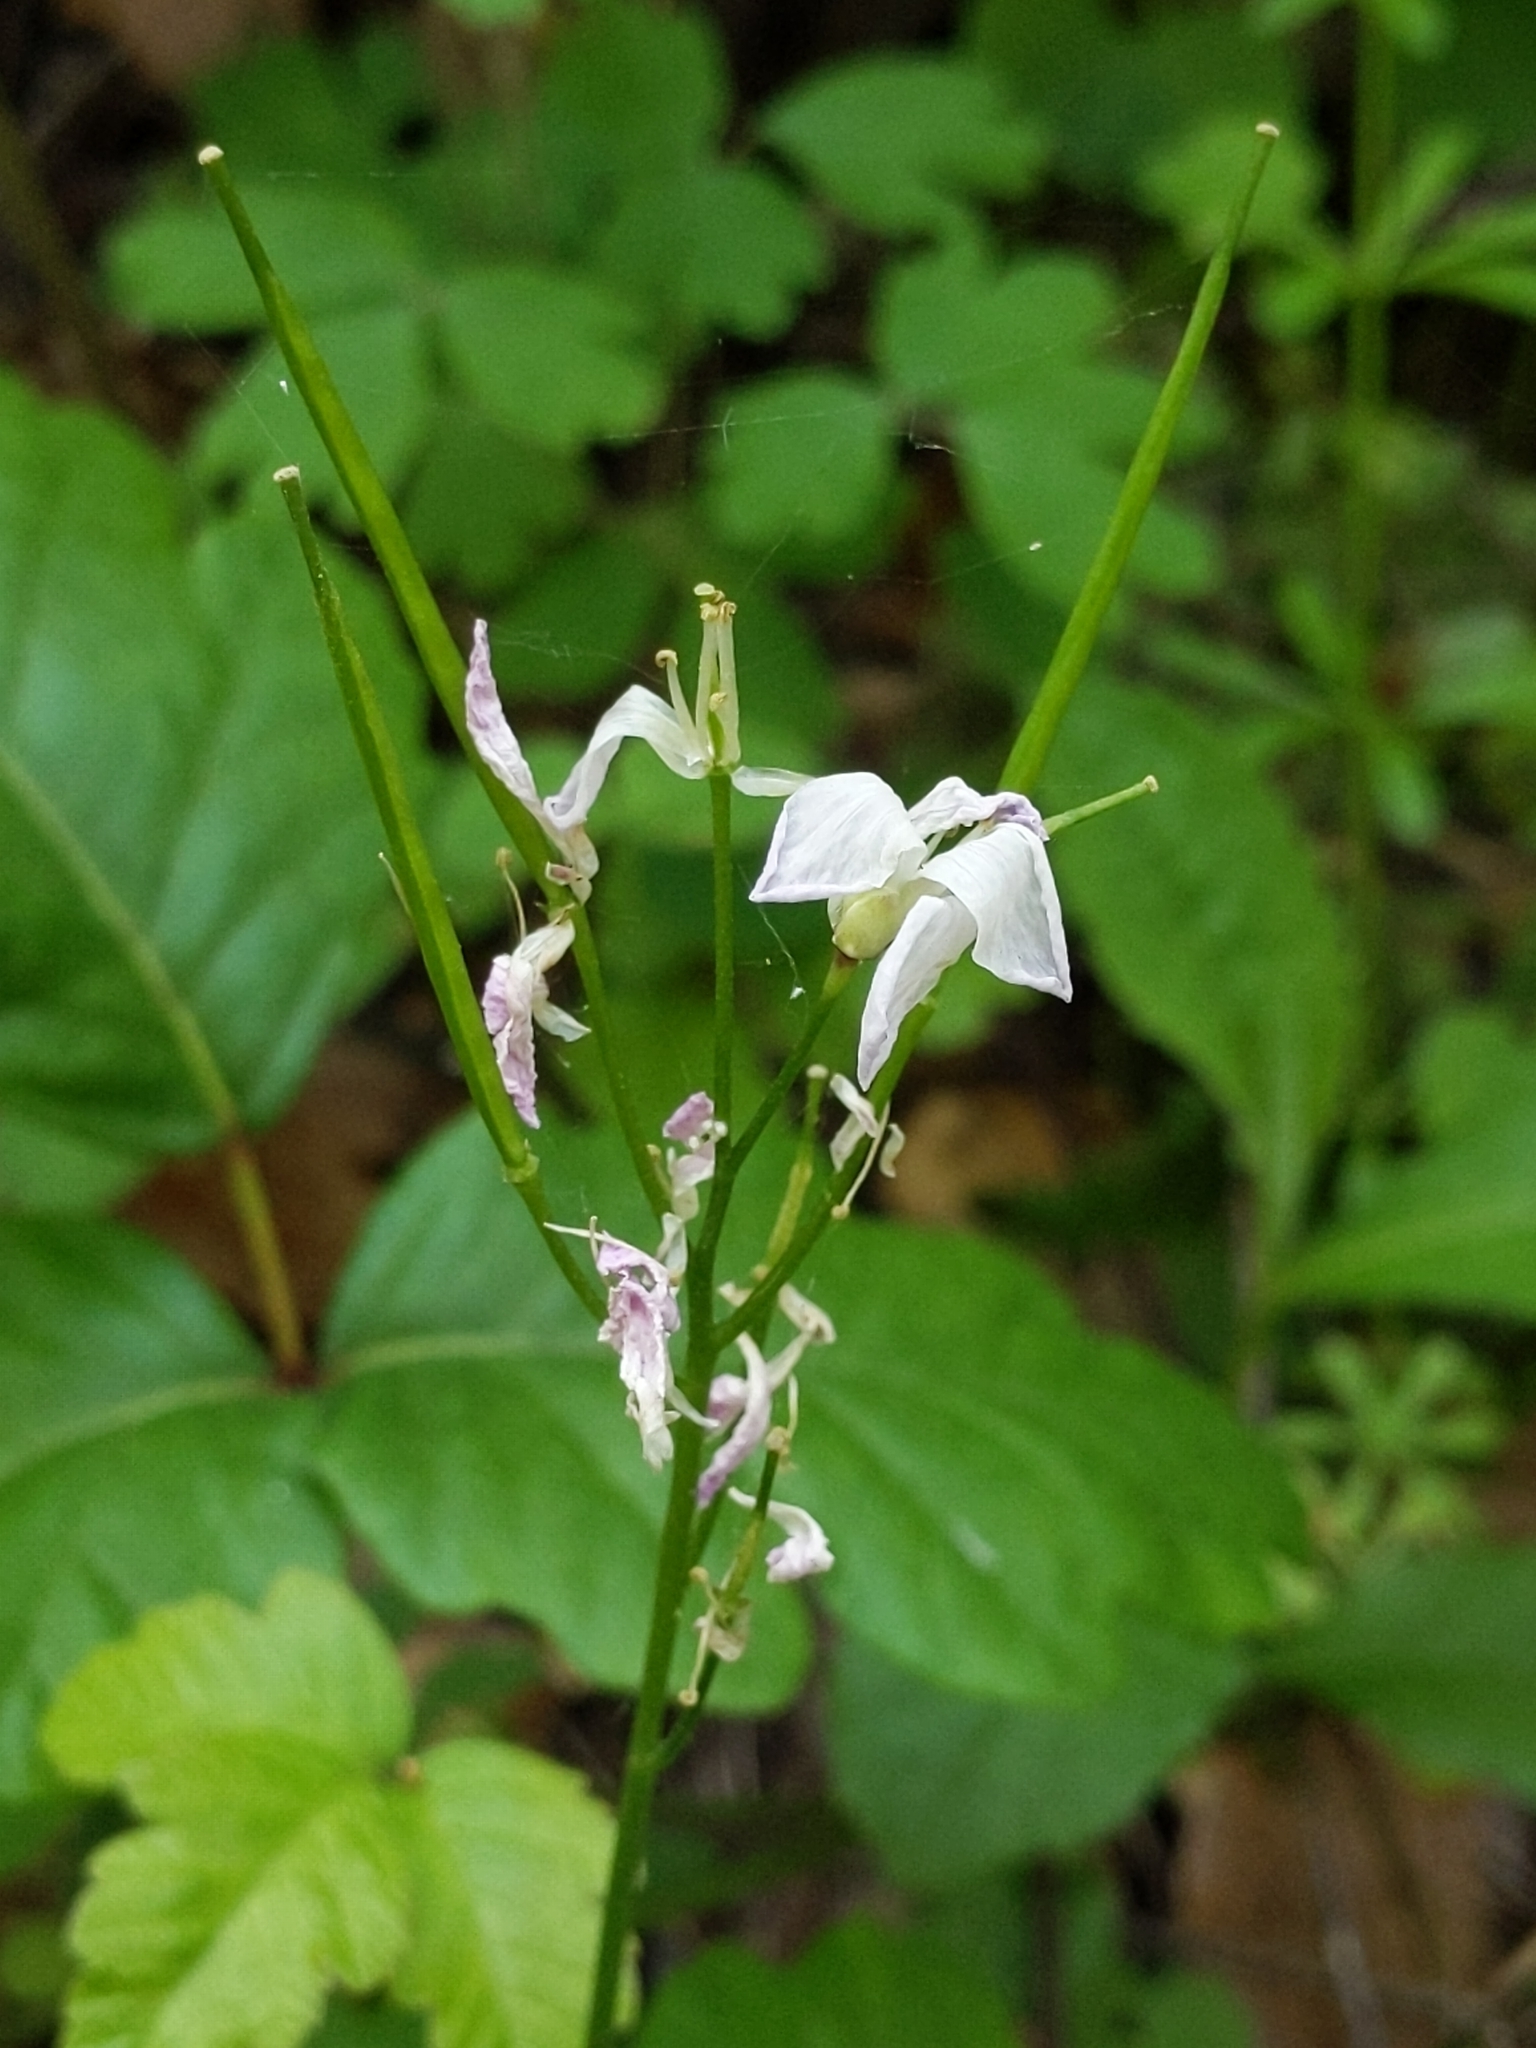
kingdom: Plantae
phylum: Tracheophyta
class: Magnoliopsida
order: Brassicales
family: Brassicaceae
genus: Cardamine
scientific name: Cardamine californica
